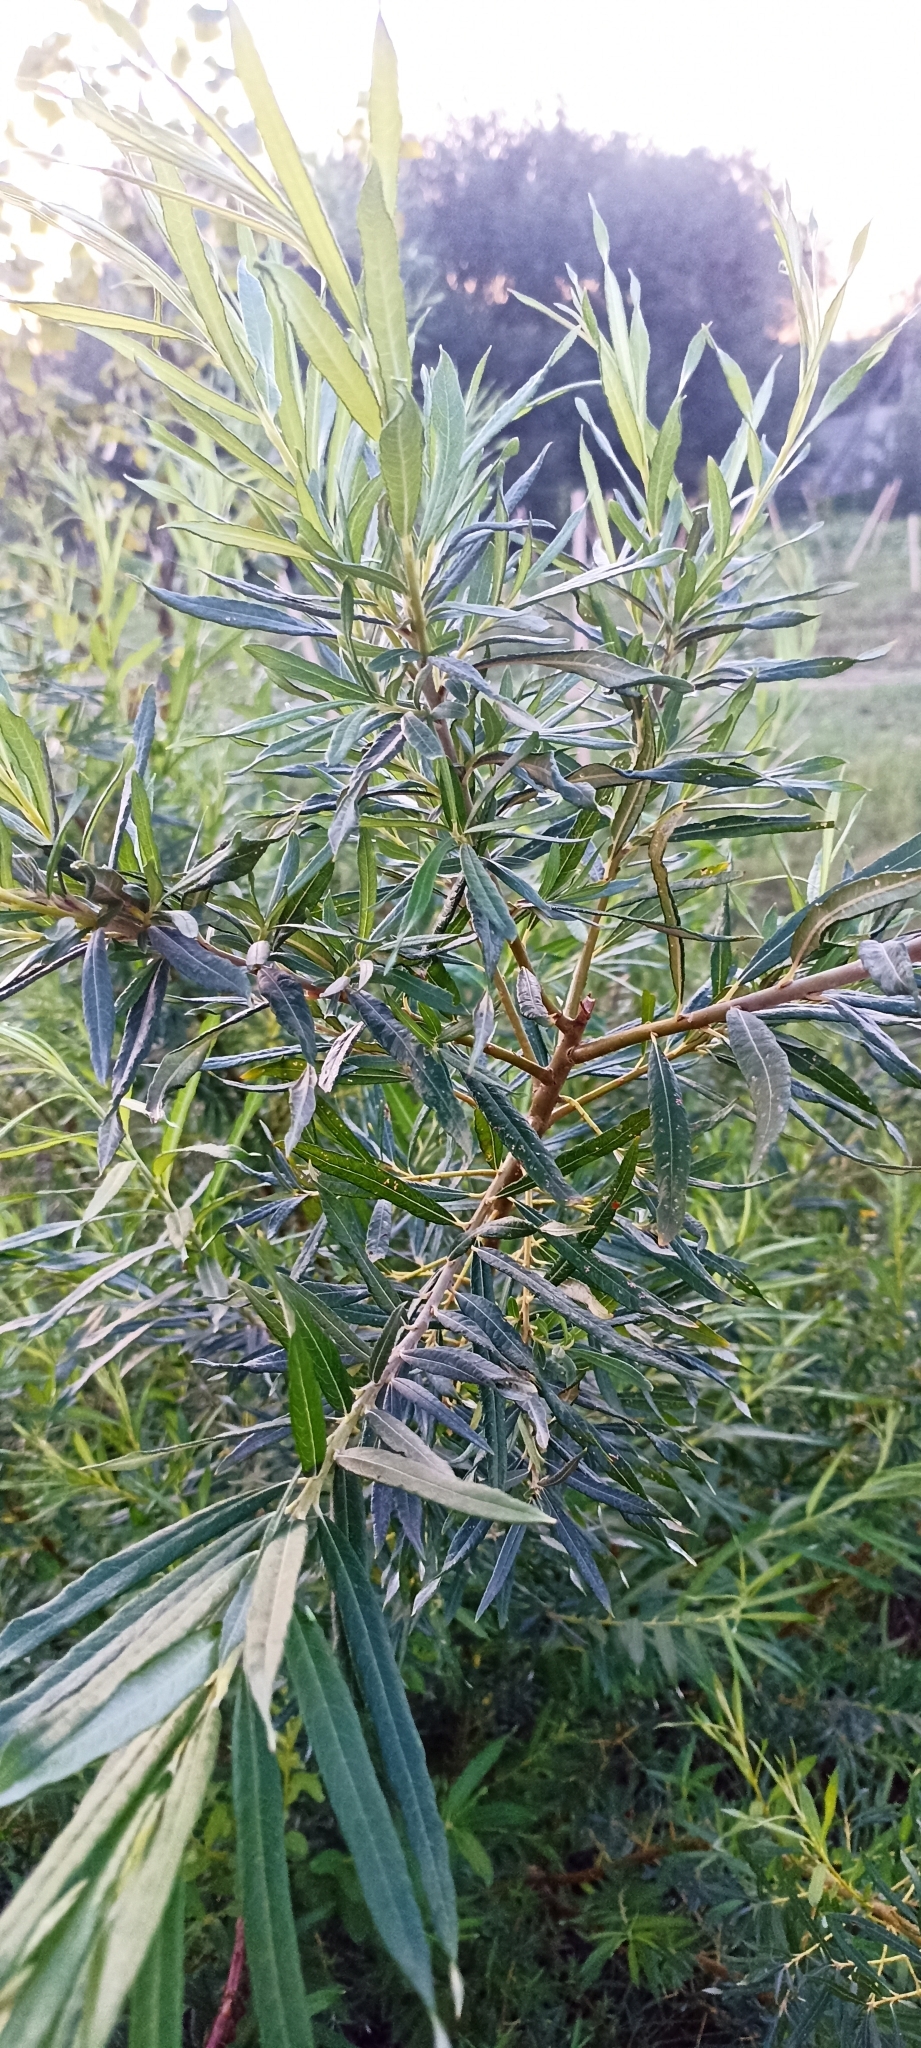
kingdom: Plantae
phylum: Tracheophyta
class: Magnoliopsida
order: Malpighiales
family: Salicaceae
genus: Salix
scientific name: Salix viminalis
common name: Osier
